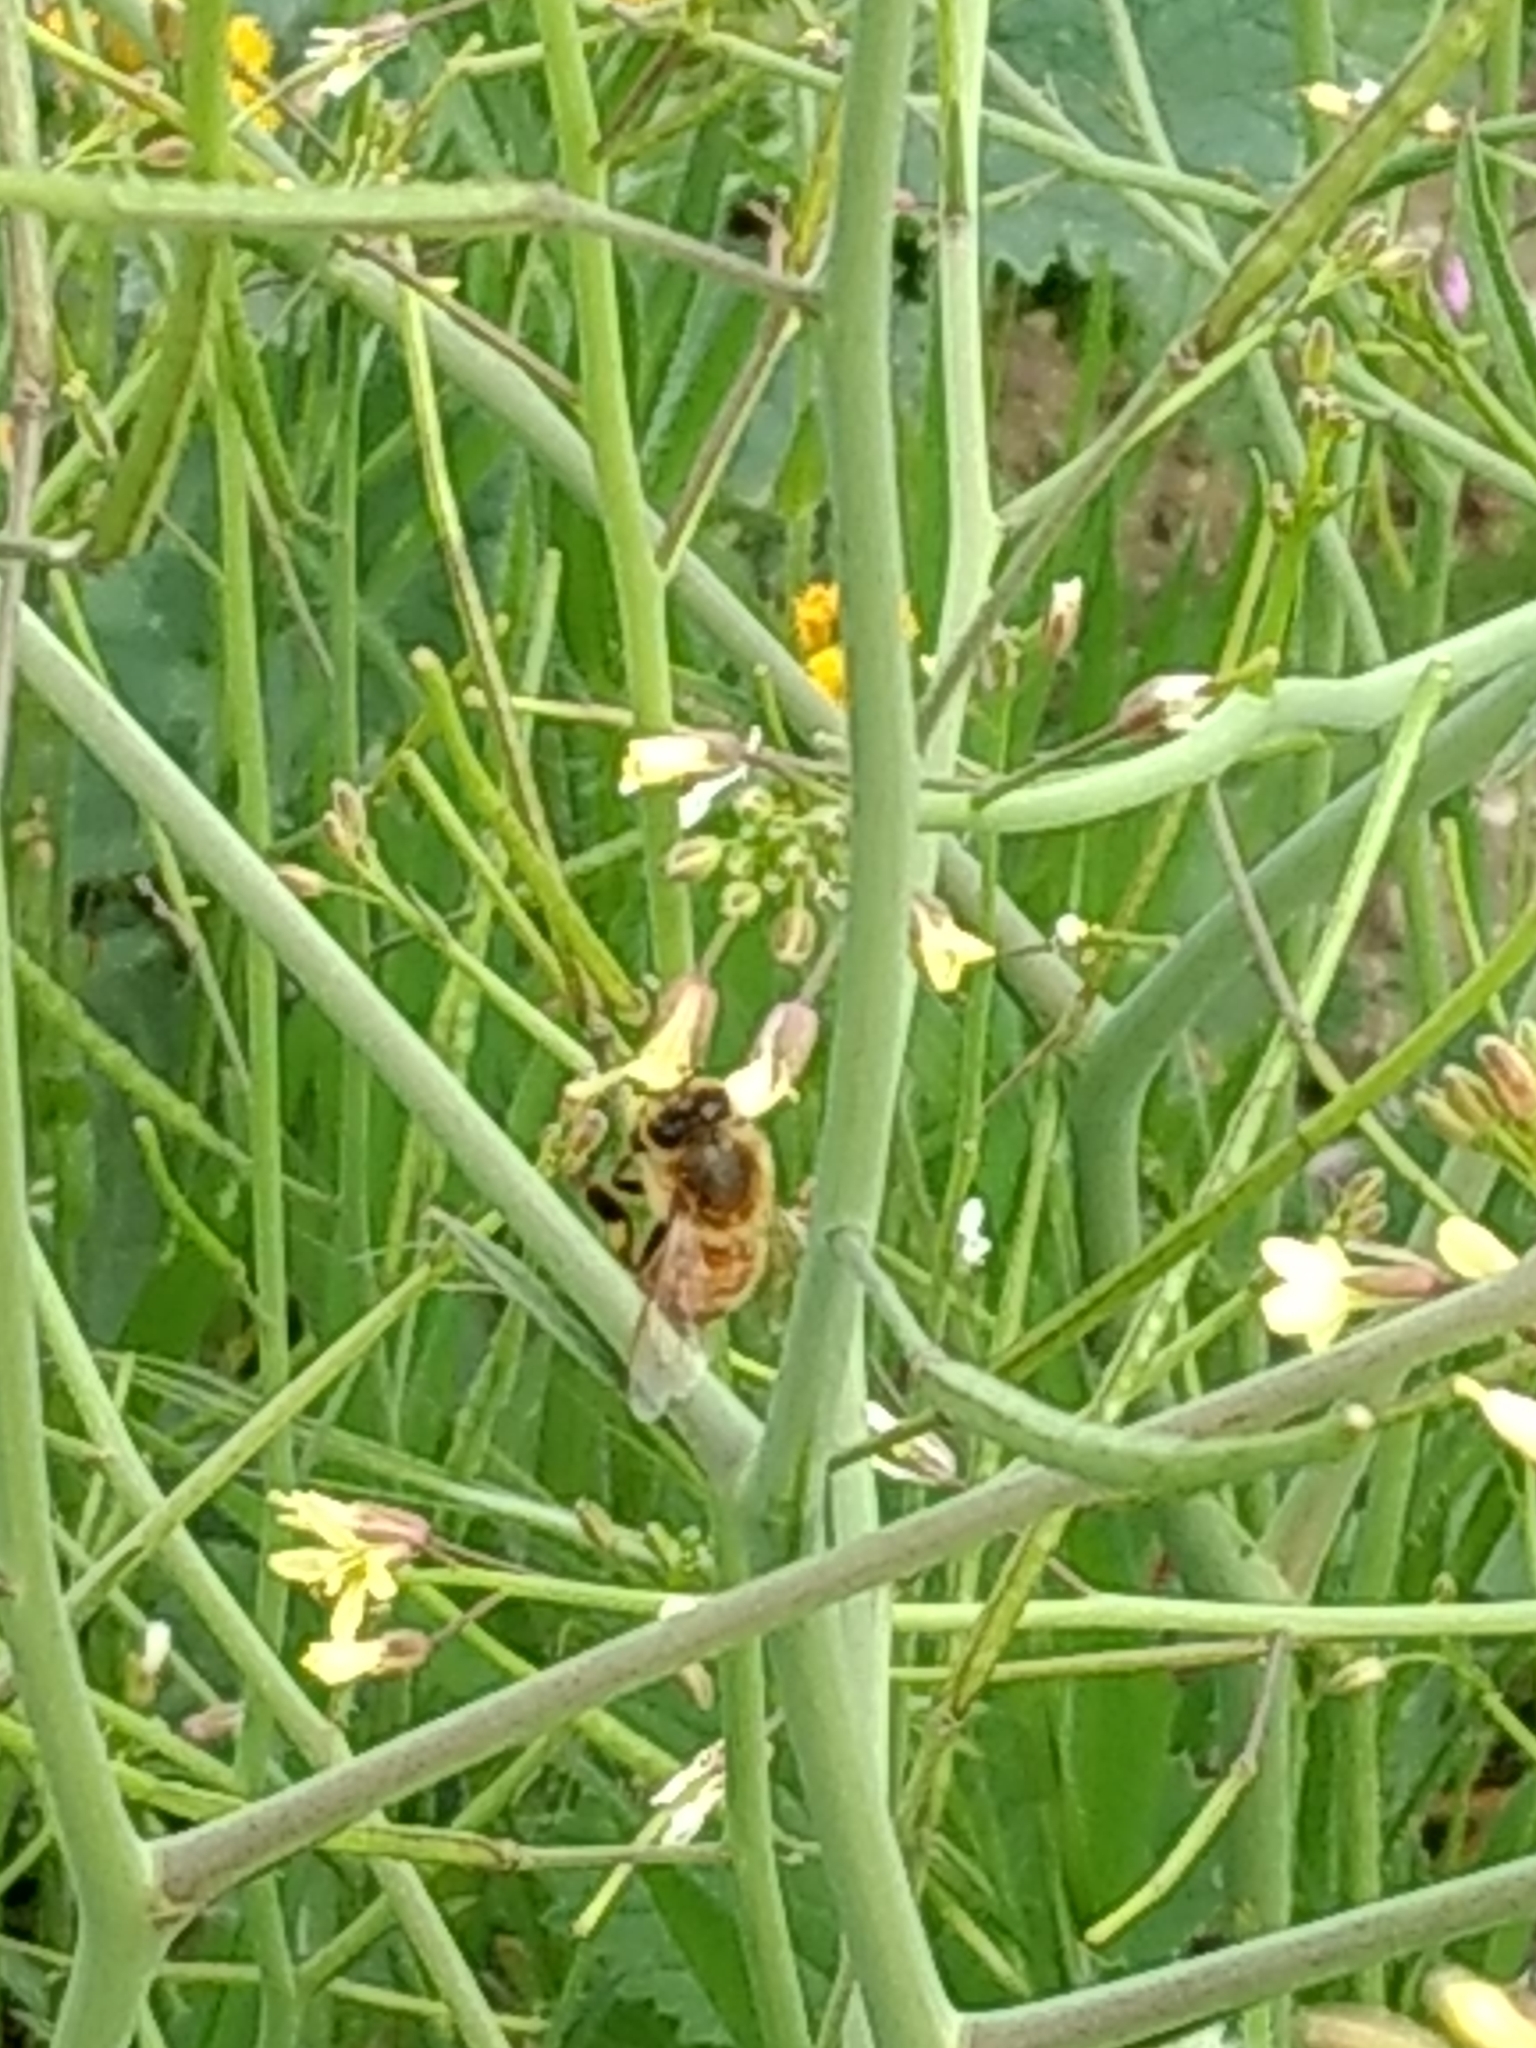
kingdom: Animalia
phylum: Arthropoda
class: Insecta
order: Hymenoptera
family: Apidae
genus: Apis
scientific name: Apis mellifera
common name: Honey bee
